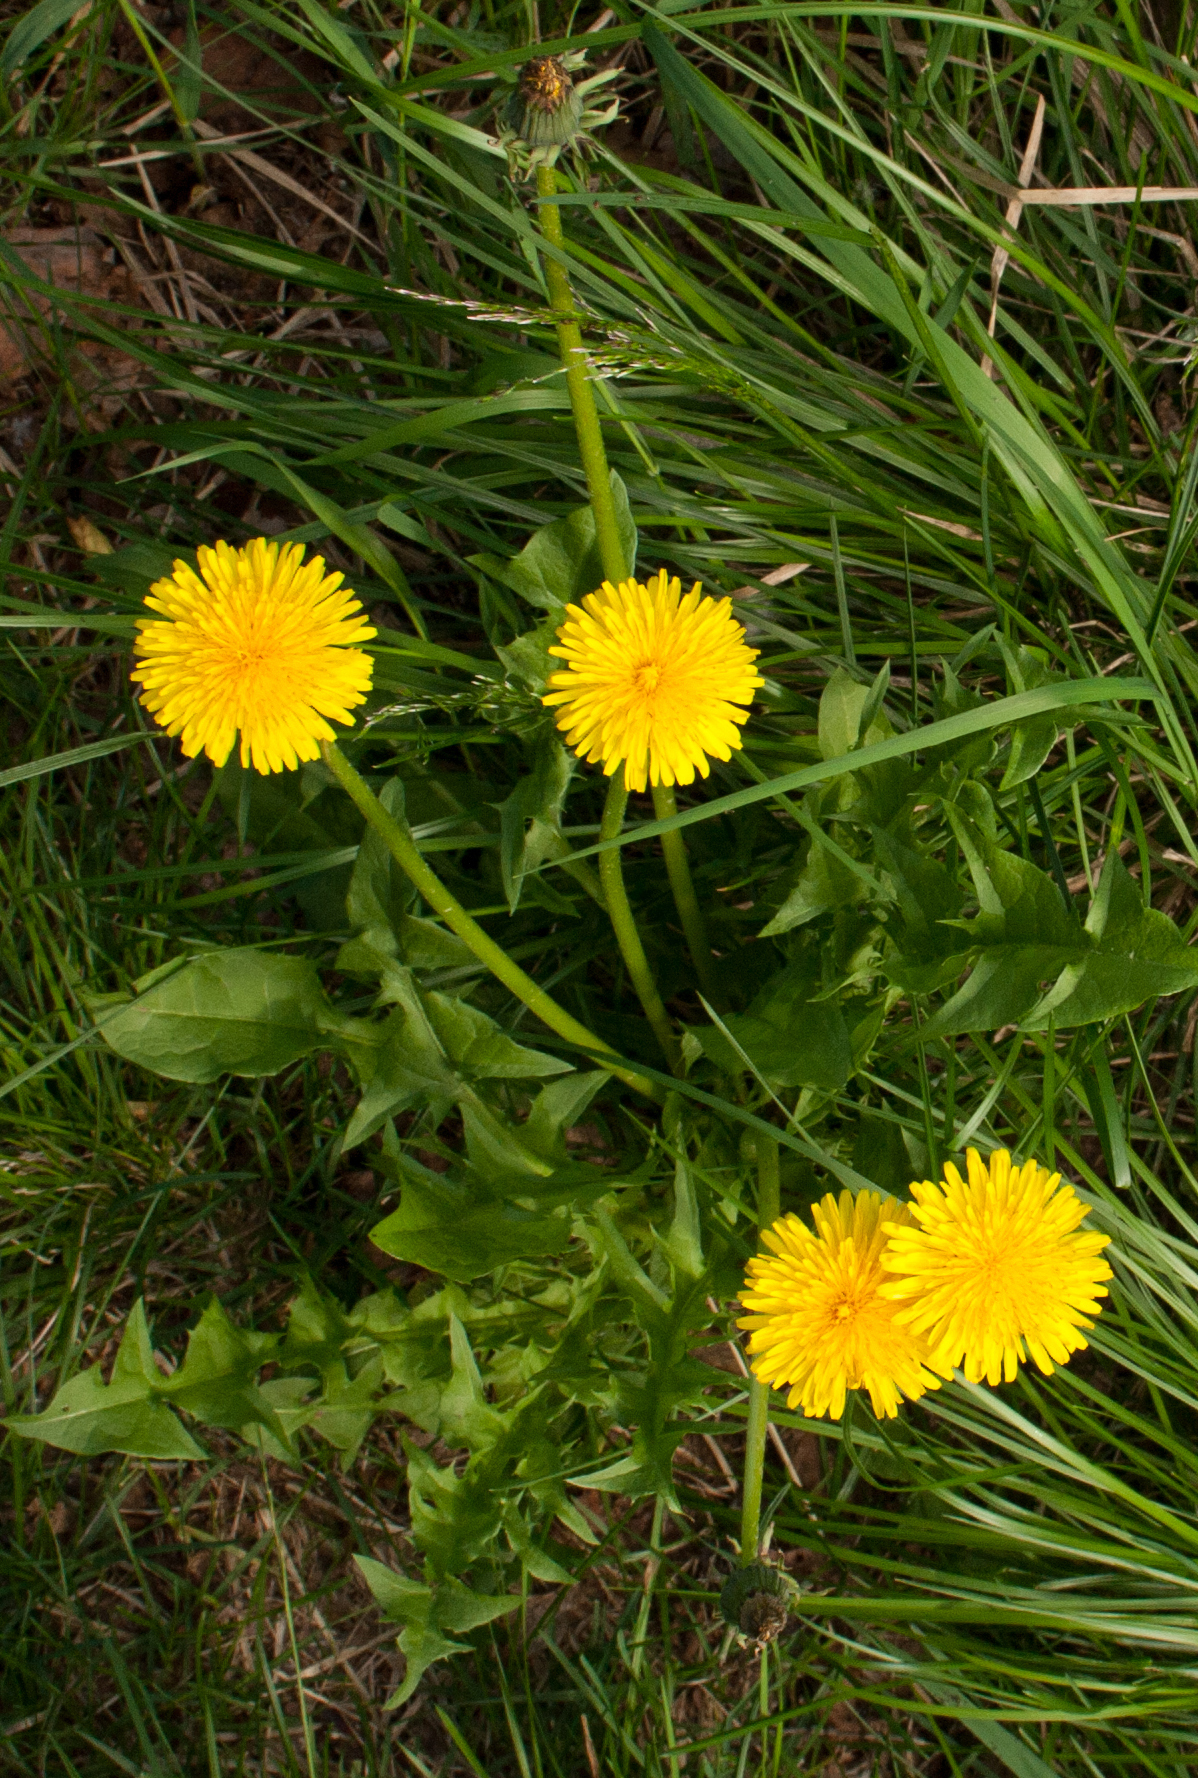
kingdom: Plantae
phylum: Tracheophyta
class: Magnoliopsida
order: Asterales
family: Asteraceae
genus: Taraxacum
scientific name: Taraxacum officinale
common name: Common dandelion
